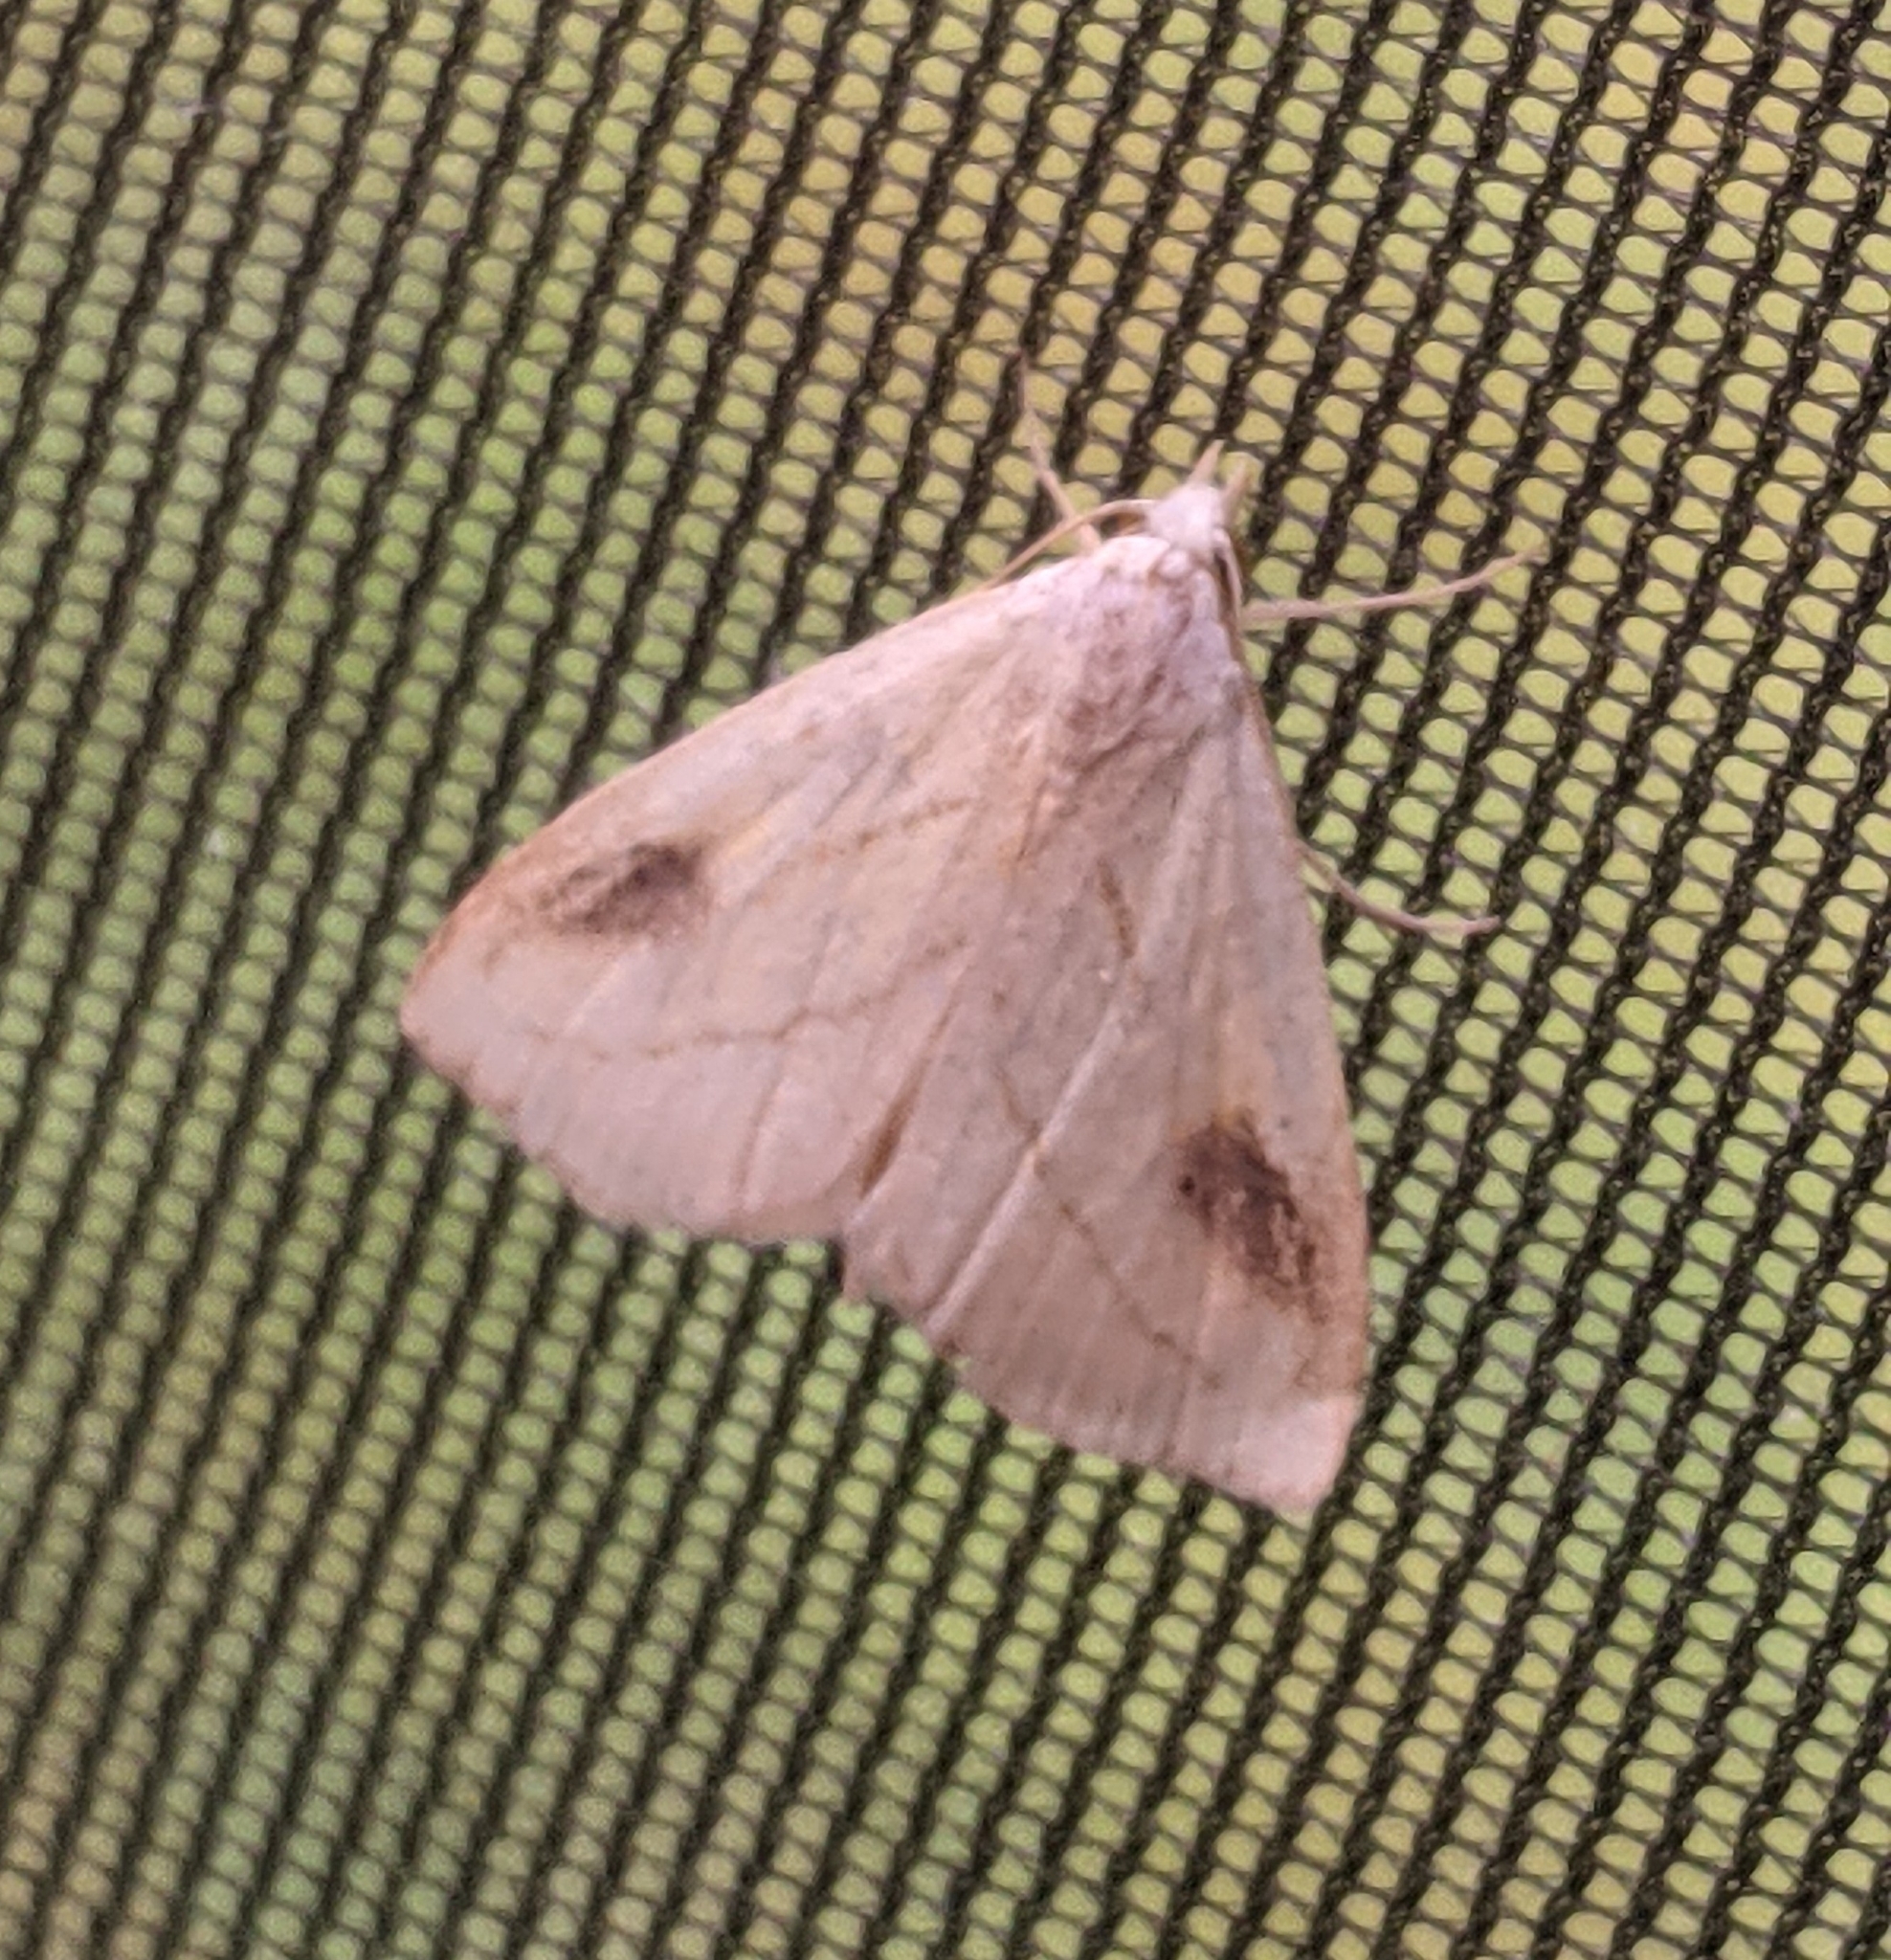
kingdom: Animalia
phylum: Arthropoda
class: Insecta
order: Lepidoptera
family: Erebidae
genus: Rivula
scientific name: Rivula propinqualis
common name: Spotted grass moth
